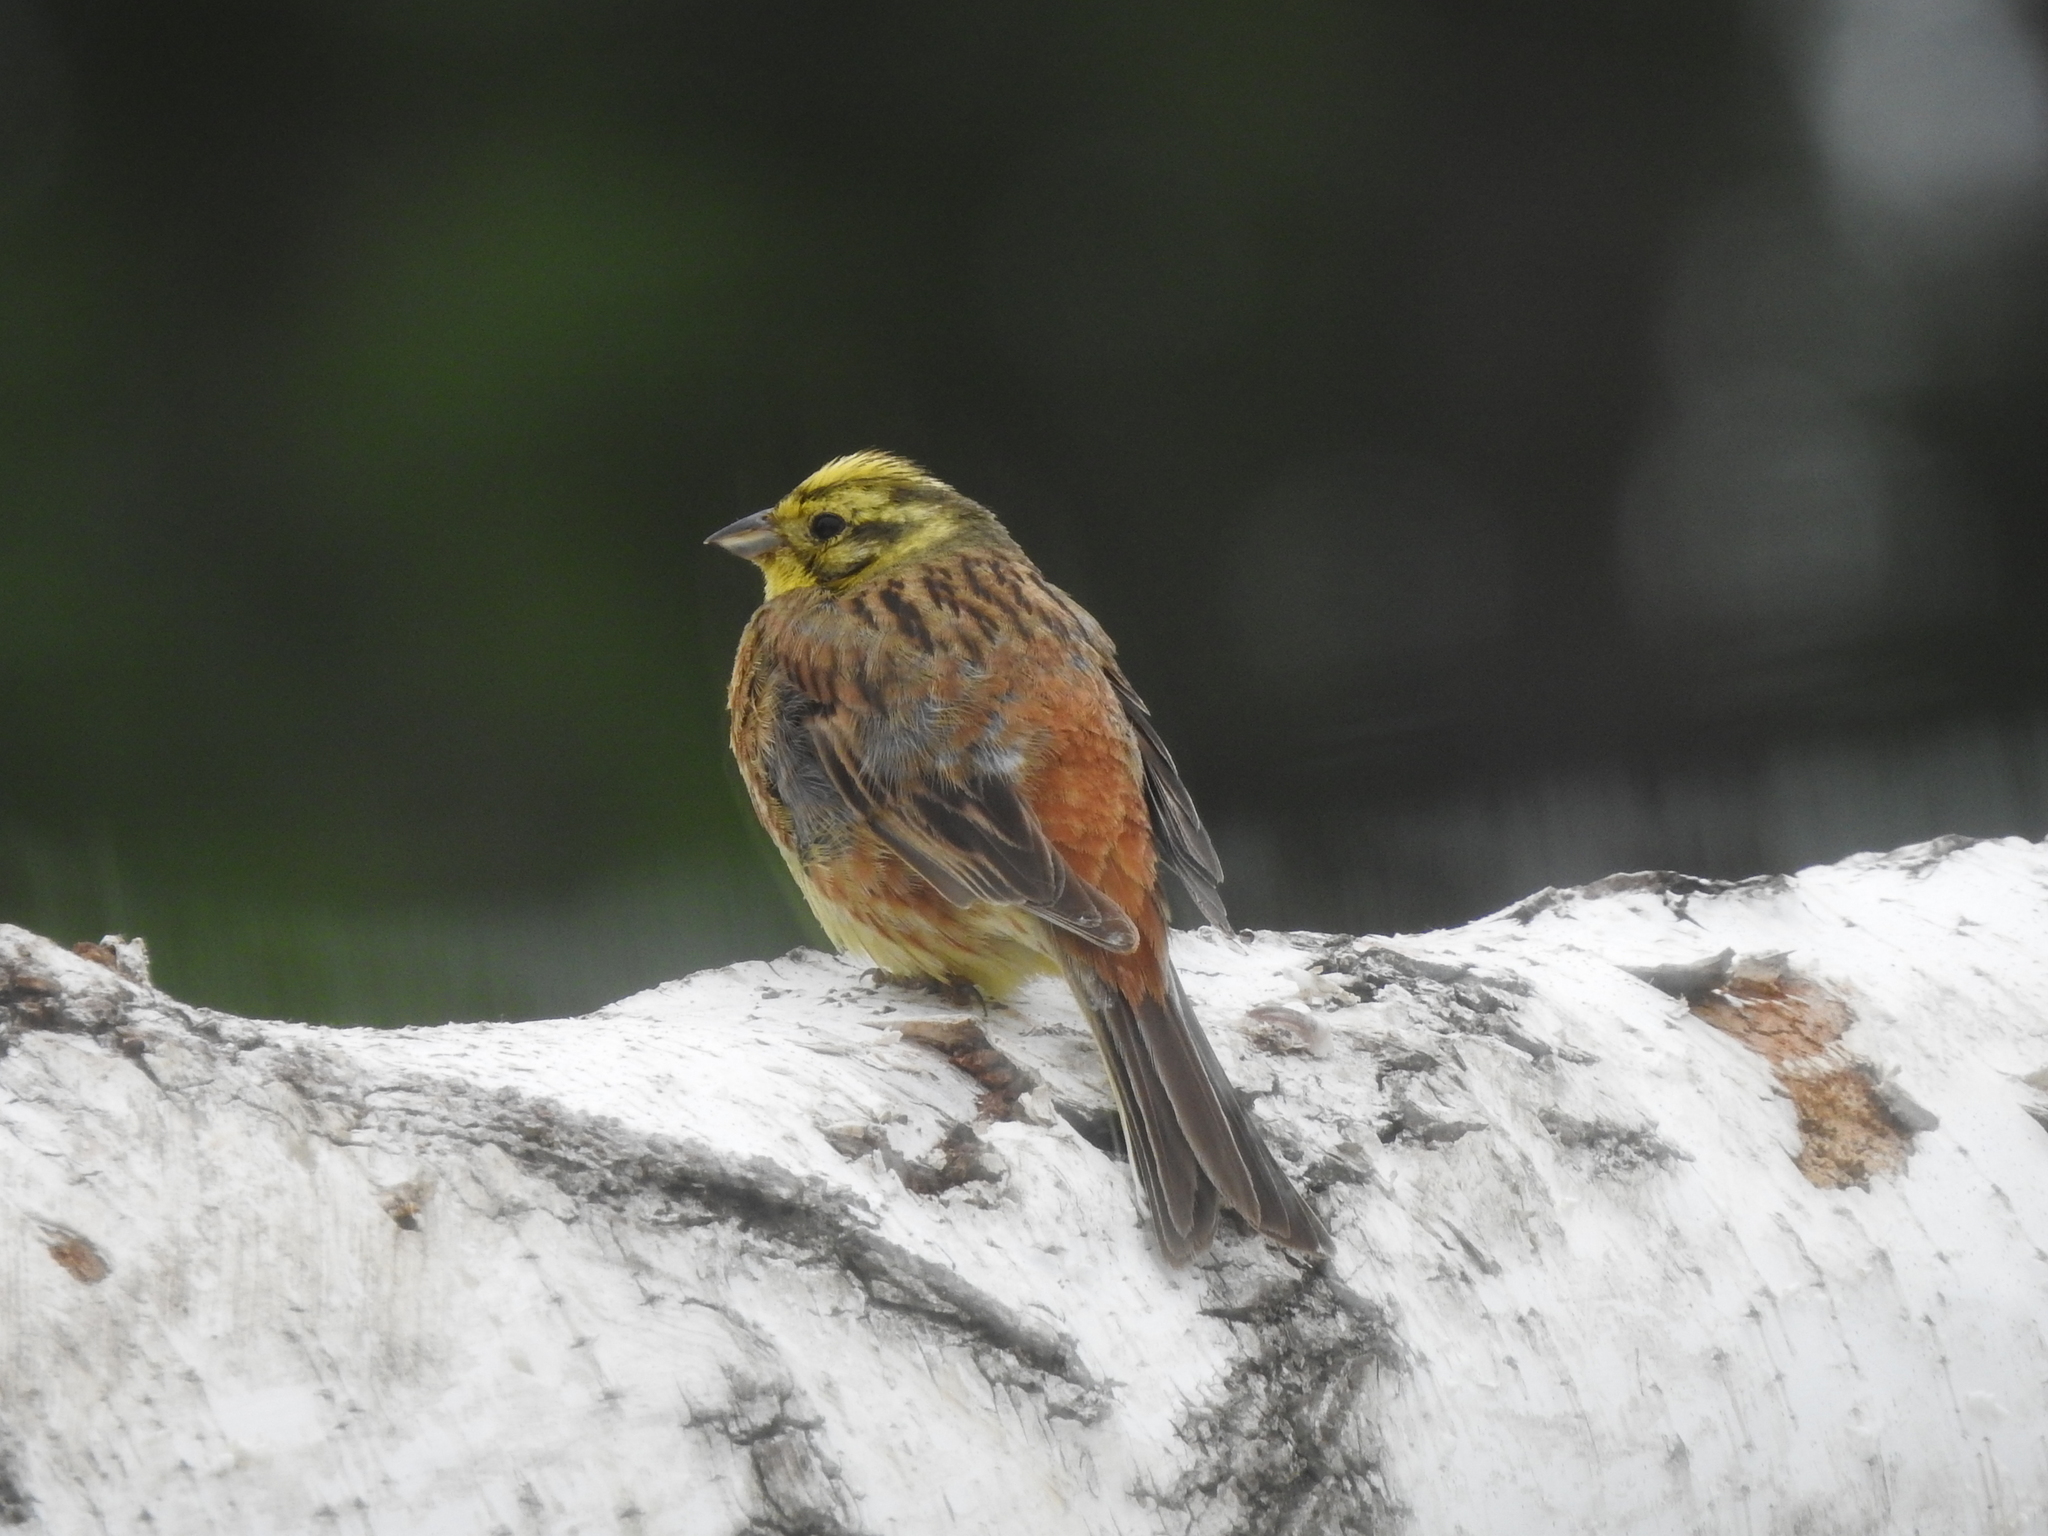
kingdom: Animalia
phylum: Chordata
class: Aves
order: Passeriformes
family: Emberizidae
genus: Emberiza
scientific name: Emberiza citrinella
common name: Yellowhammer
